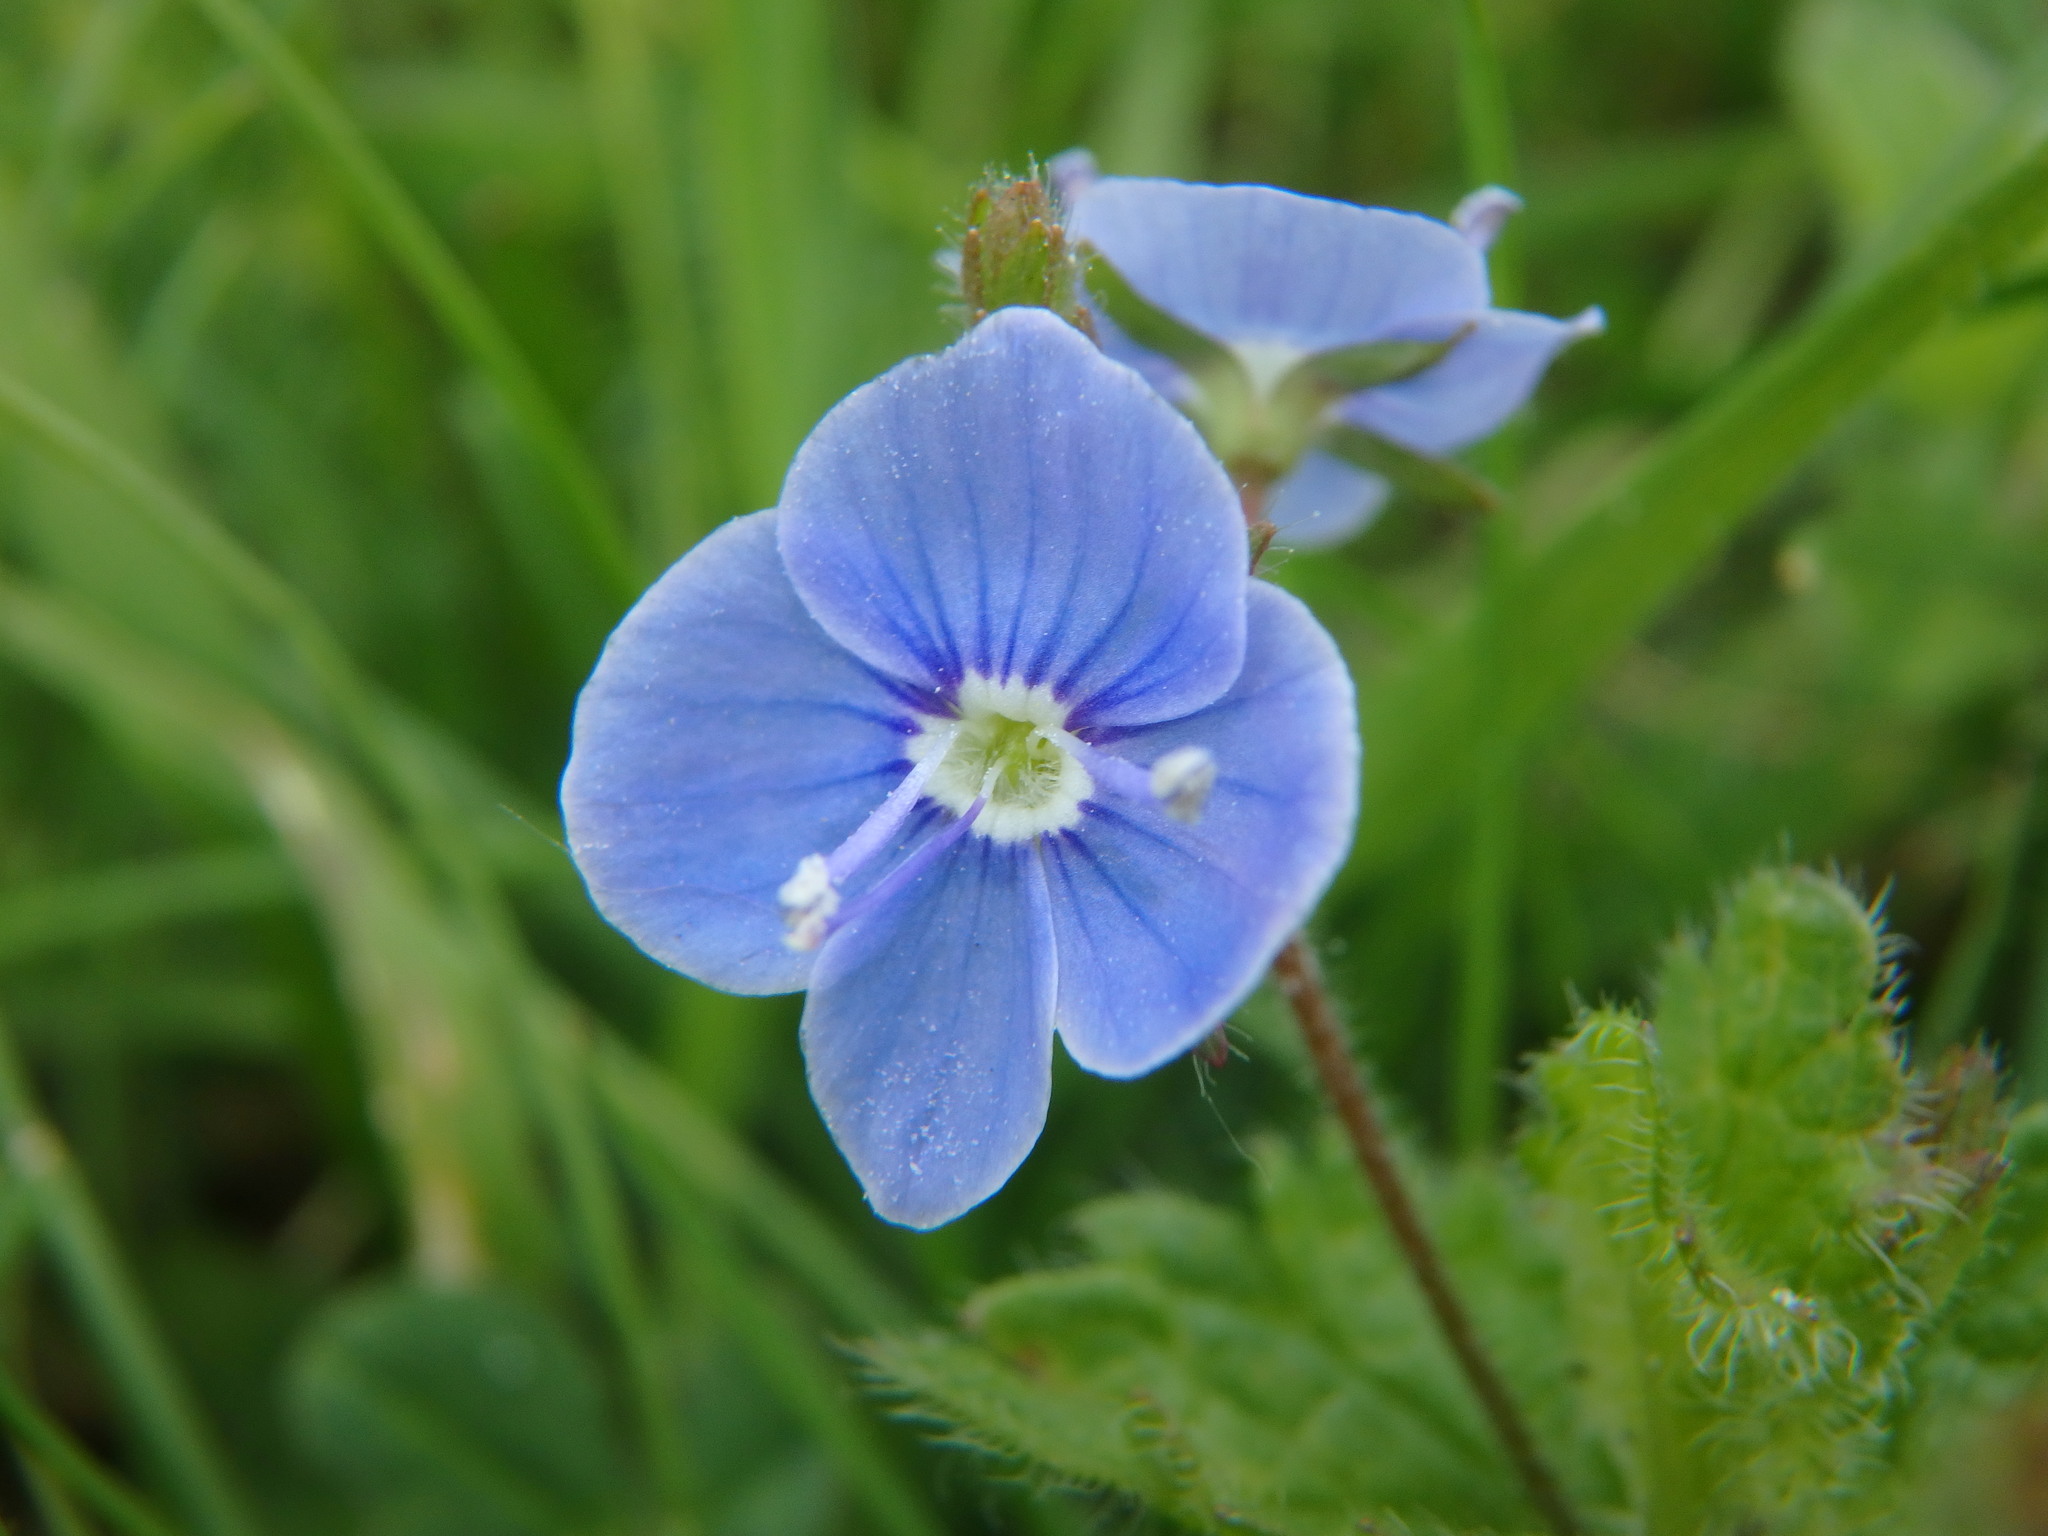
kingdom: Plantae
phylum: Tracheophyta
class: Magnoliopsida
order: Lamiales
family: Plantaginaceae
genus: Veronica
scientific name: Veronica chamaedrys
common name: Germander speedwell
